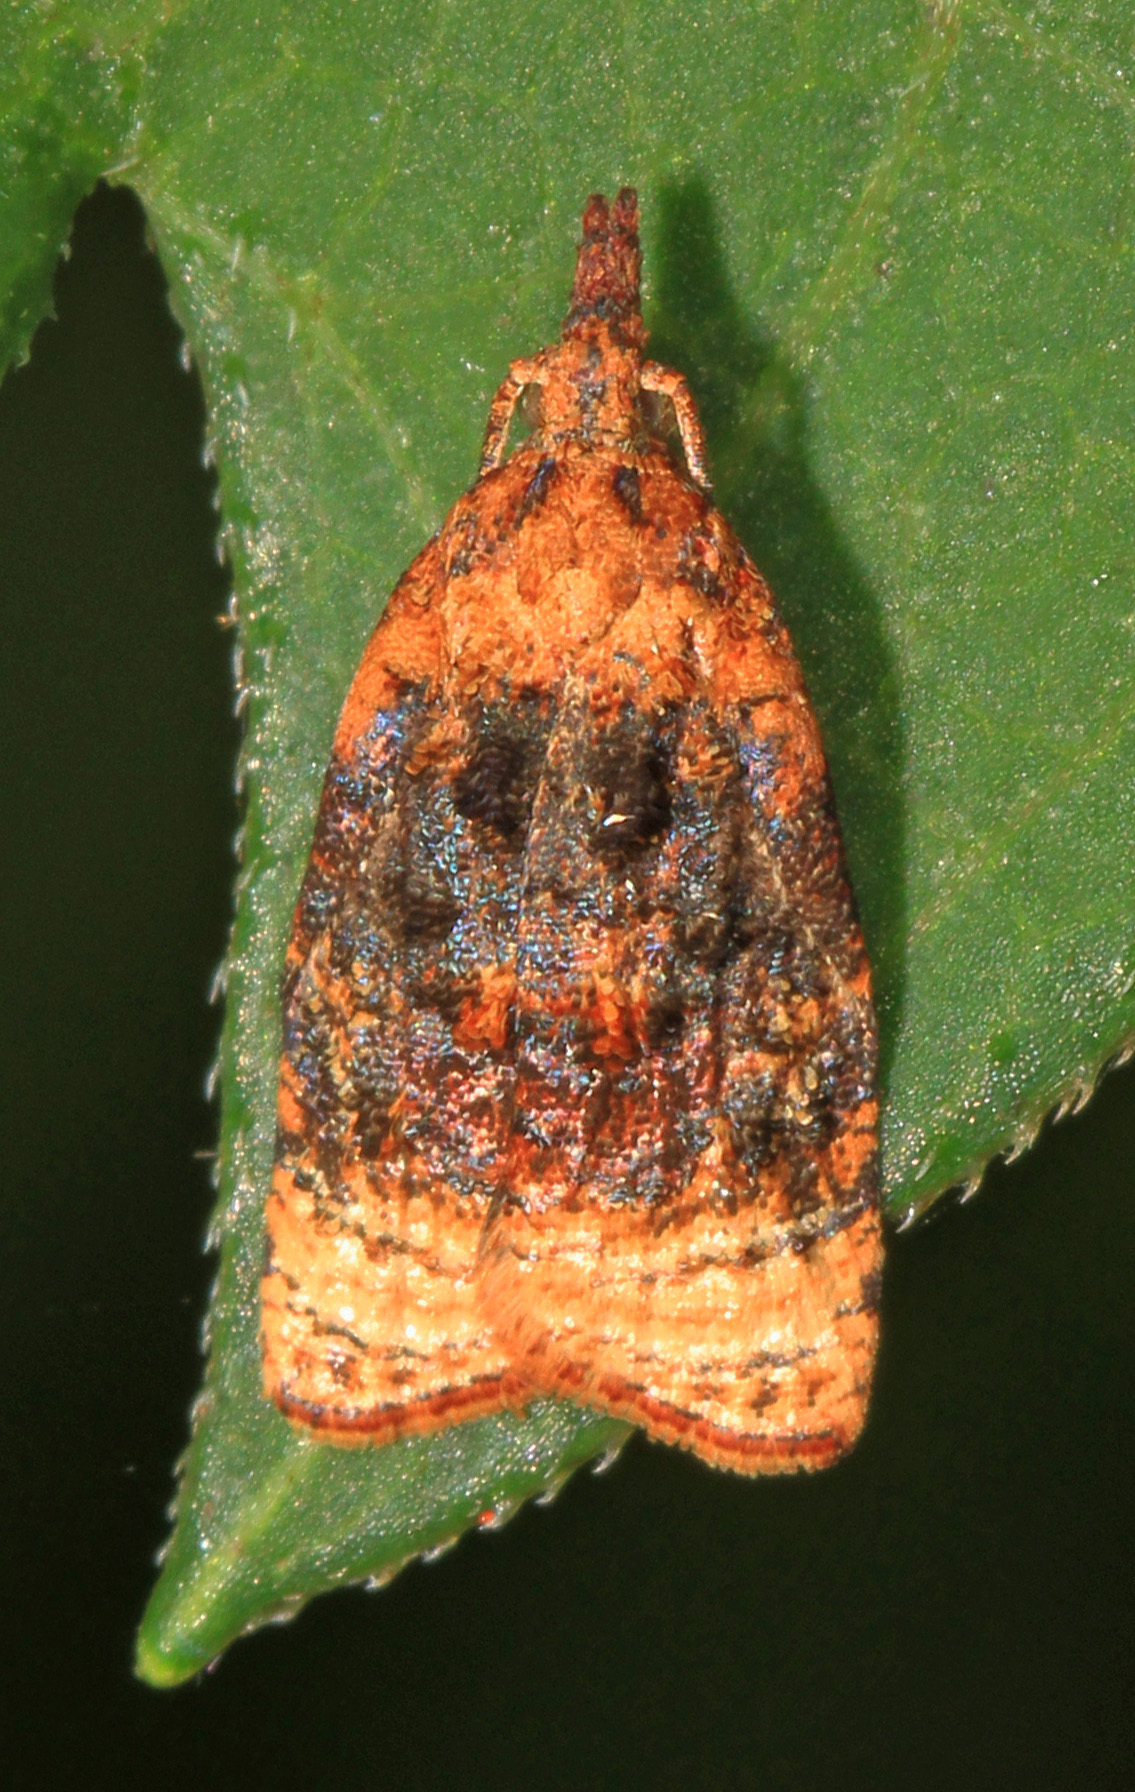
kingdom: Animalia
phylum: Arthropoda
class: Insecta
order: Lepidoptera
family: Tortricidae
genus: Platynota
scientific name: Platynota flavedana
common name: Black-shaded platynota moth
